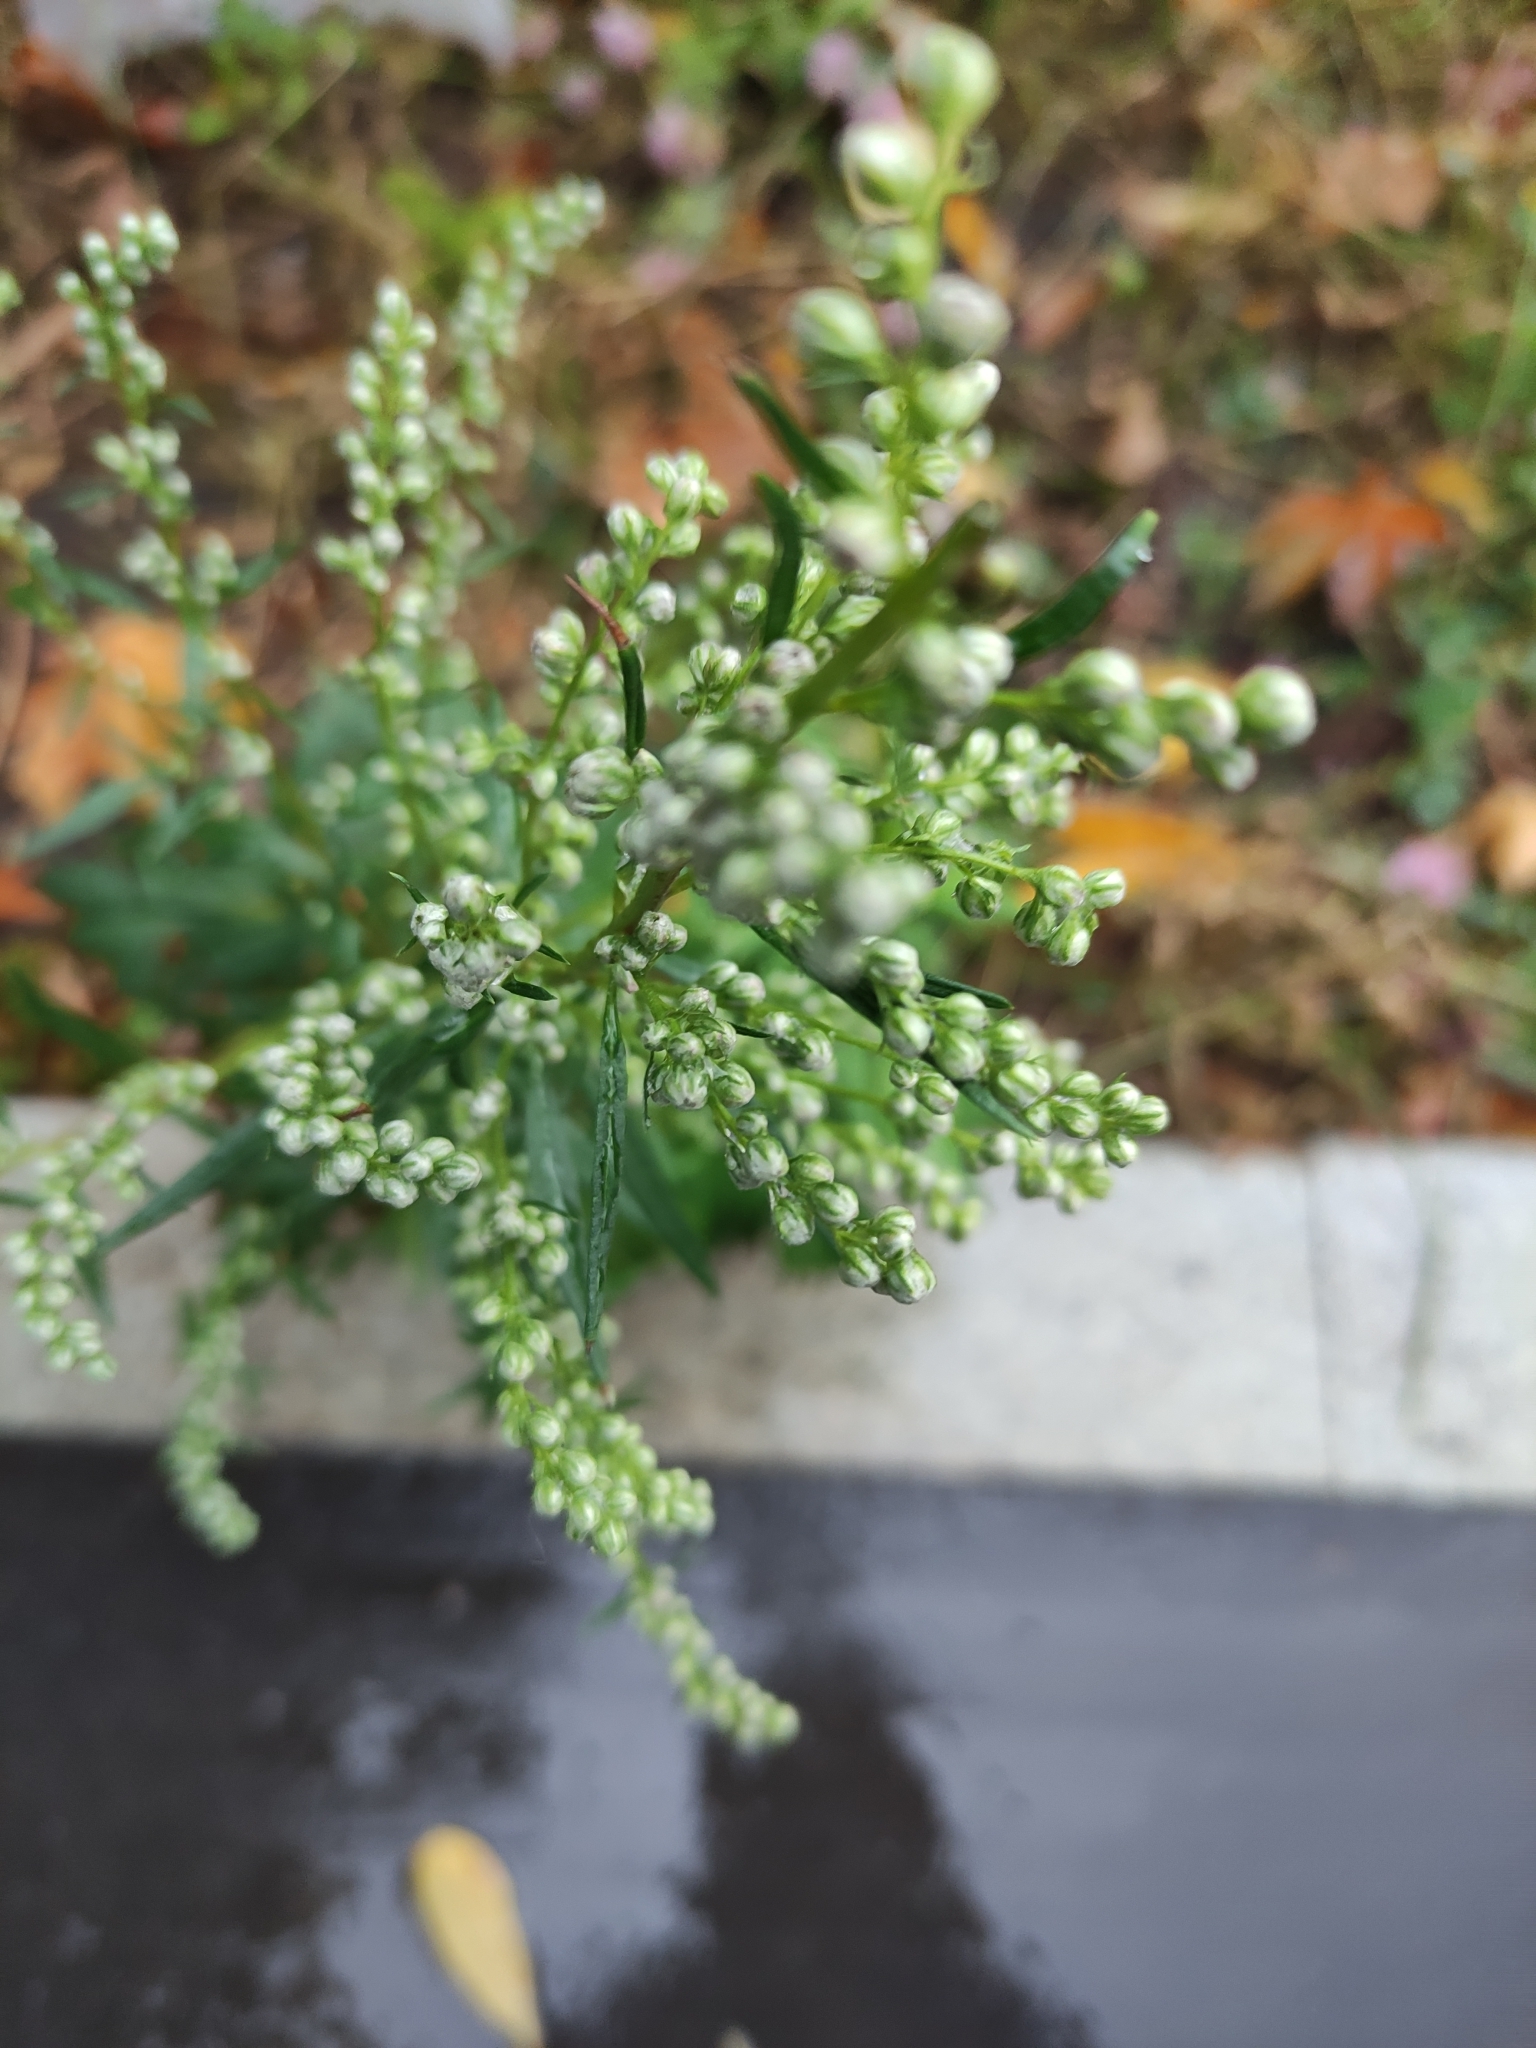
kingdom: Plantae
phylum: Tracheophyta
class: Magnoliopsida
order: Asterales
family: Asteraceae
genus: Artemisia
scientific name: Artemisia vulgaris
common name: Mugwort
